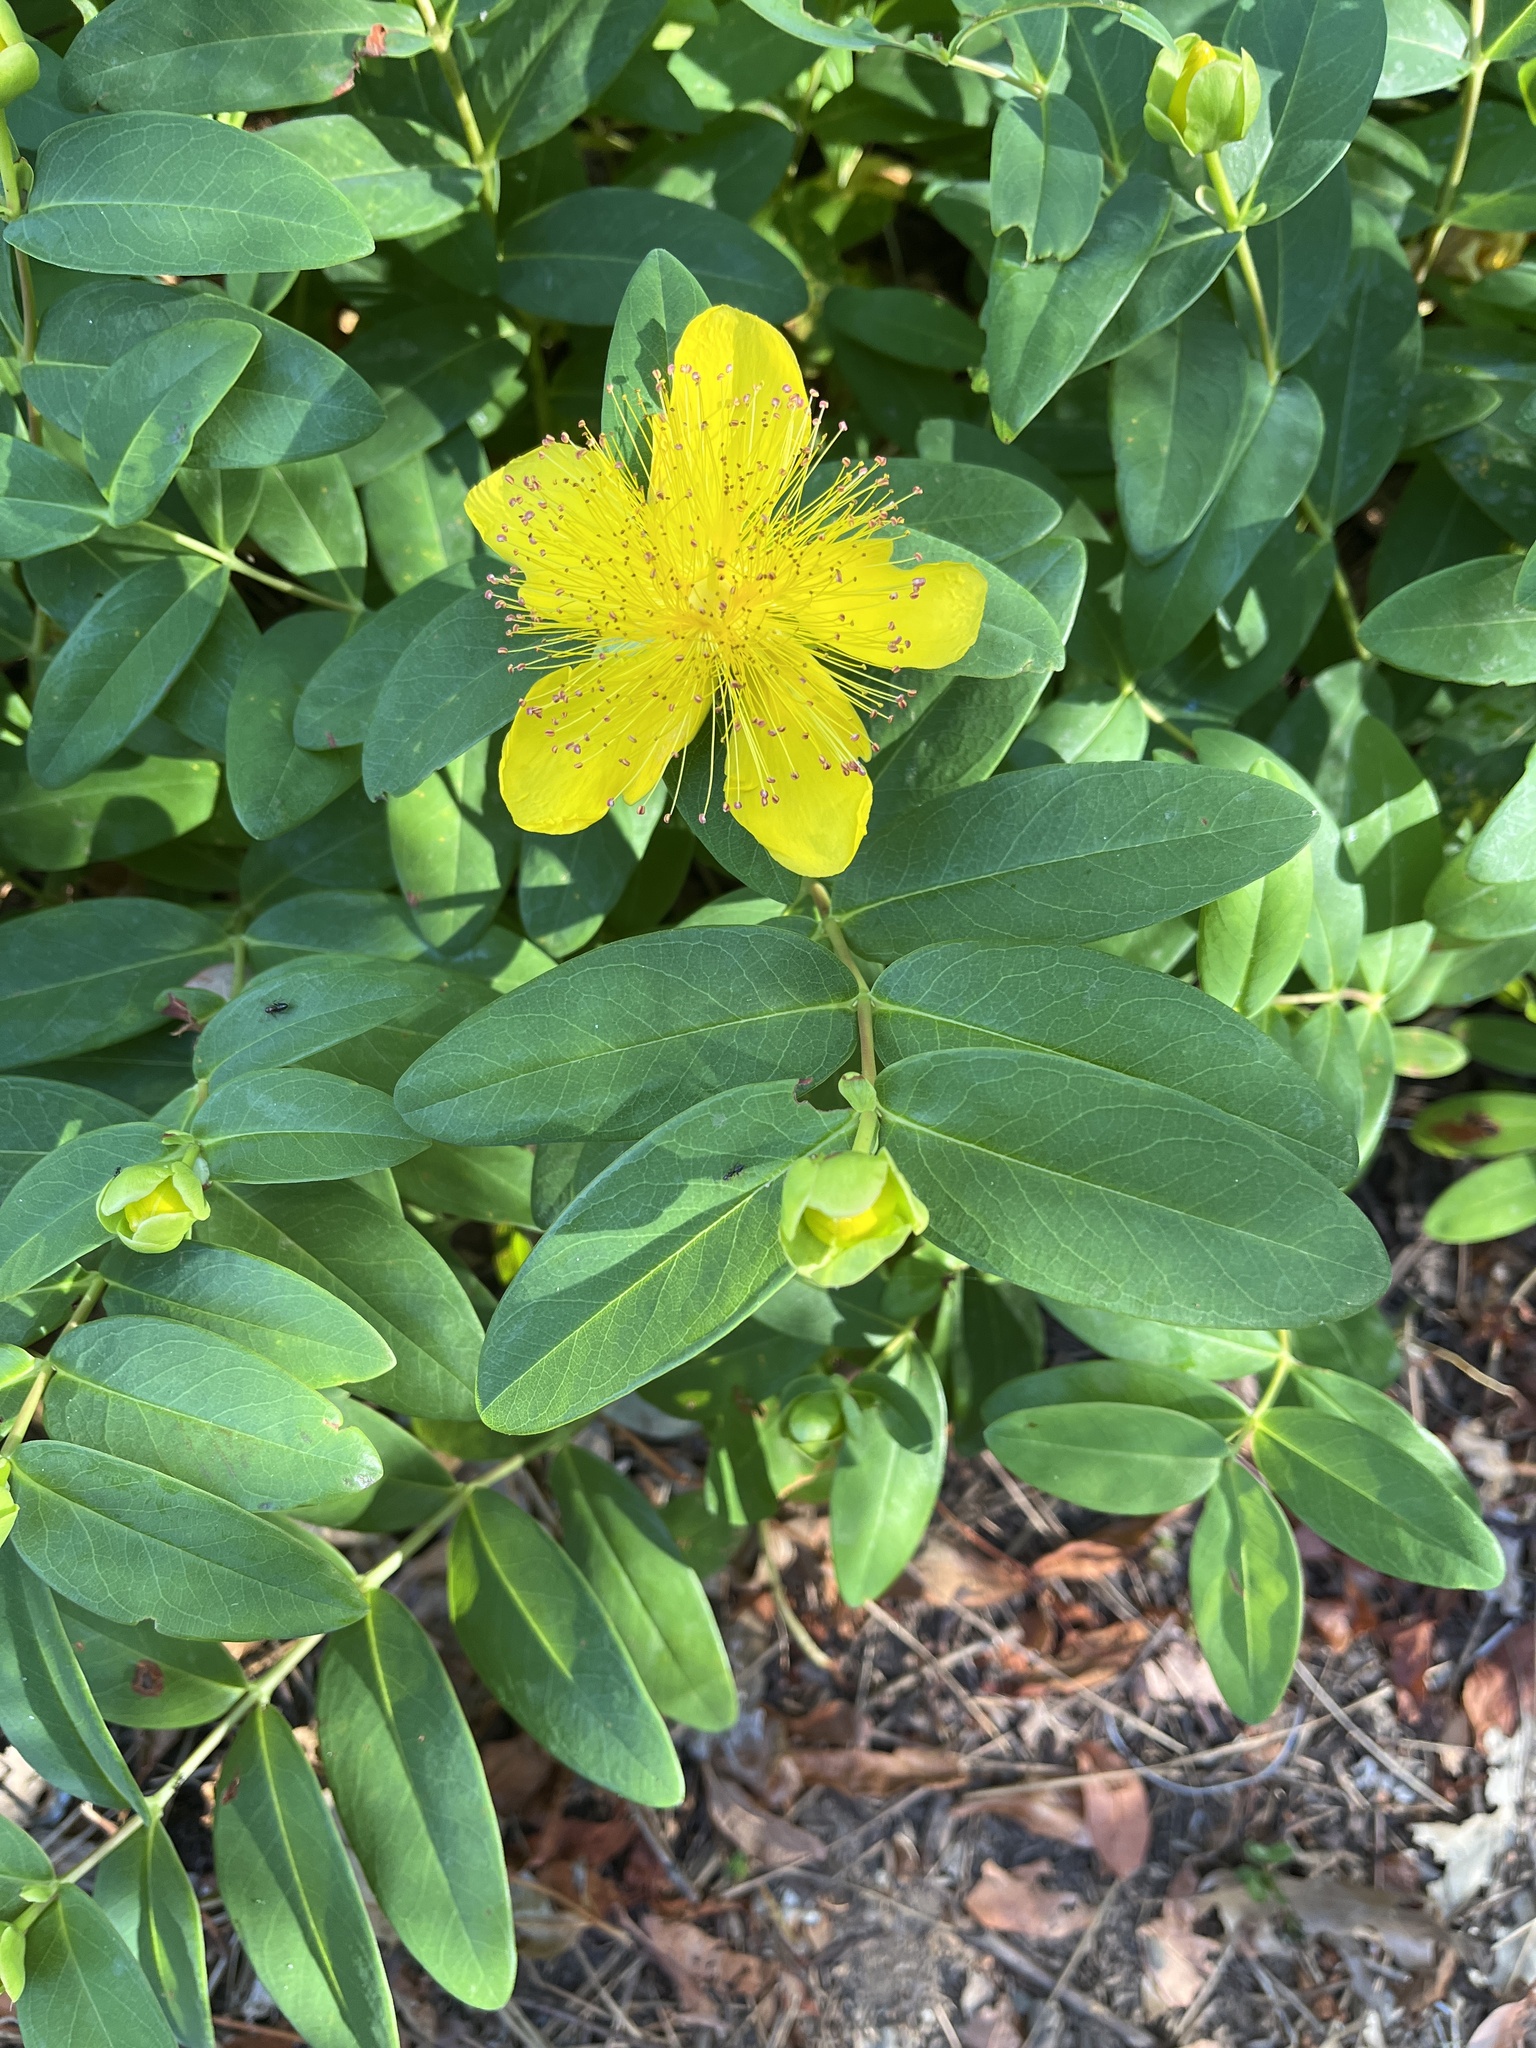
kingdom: Plantae
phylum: Tracheophyta
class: Magnoliopsida
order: Malpighiales
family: Hypericaceae
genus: Hypericum
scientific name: Hypericum calycinum
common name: Rose-of-sharon
